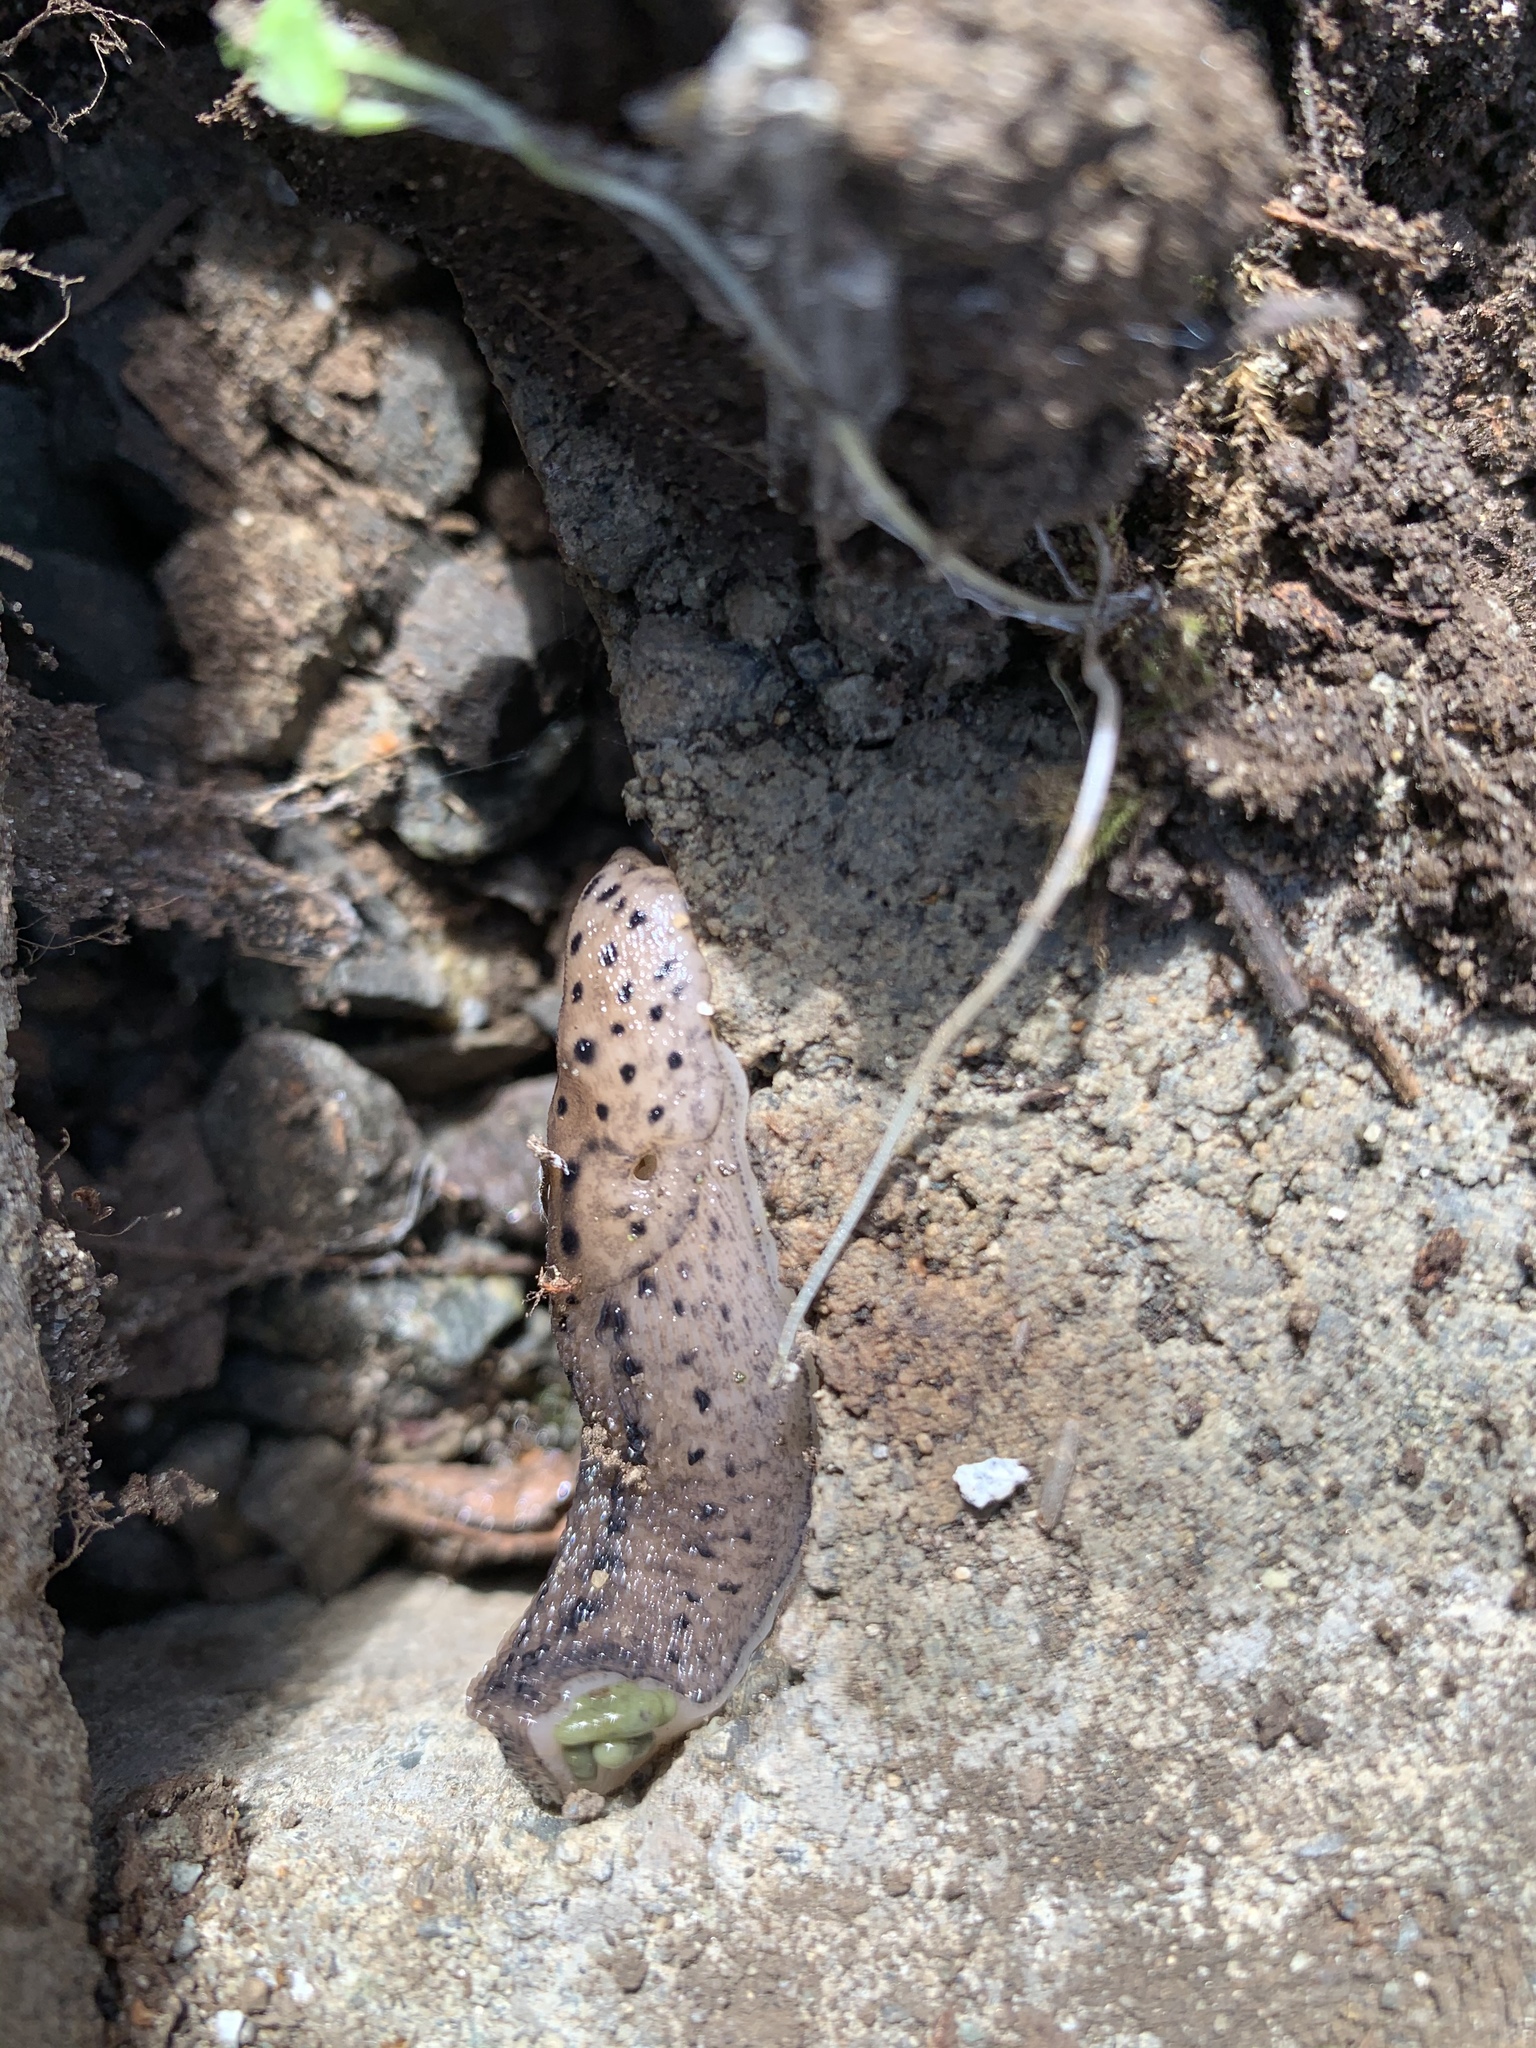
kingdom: Animalia
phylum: Mollusca
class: Gastropoda
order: Stylommatophora
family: Limacidae
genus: Limax
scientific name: Limax maximus
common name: Great grey slug
